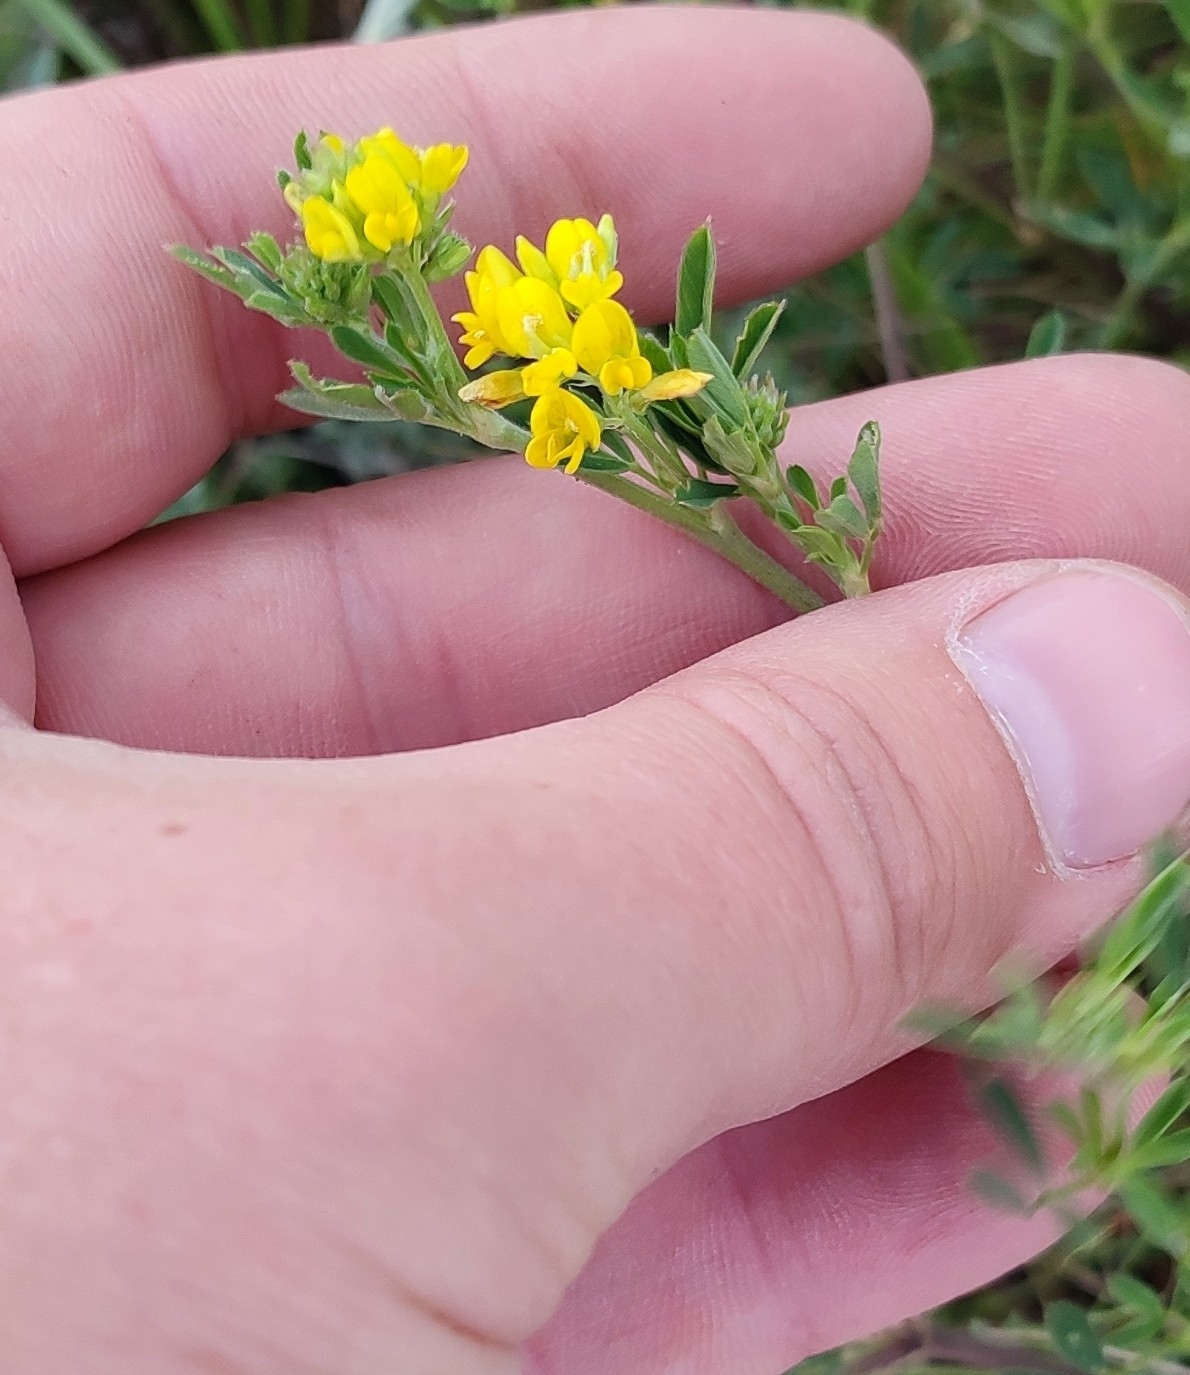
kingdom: Plantae
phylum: Tracheophyta
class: Magnoliopsida
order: Fabales
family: Fabaceae
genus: Medicago
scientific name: Medicago falcata
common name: Sickle medick
